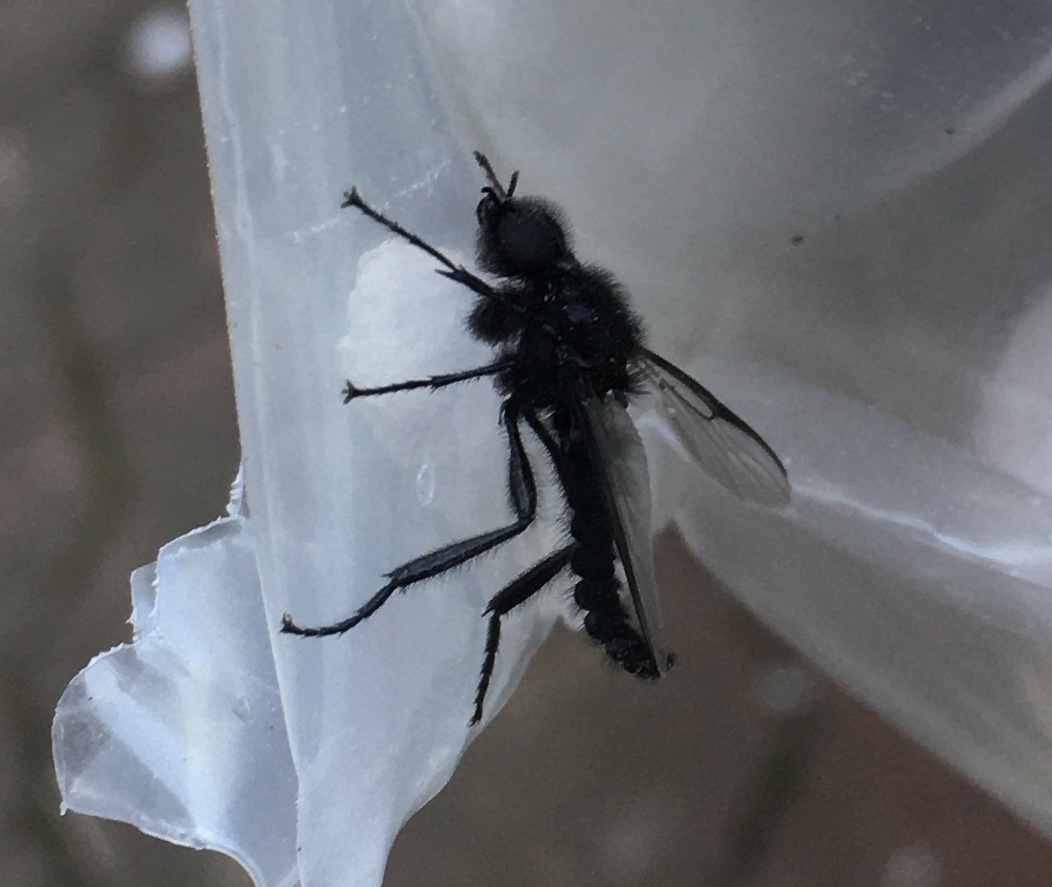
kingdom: Animalia
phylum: Arthropoda
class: Insecta
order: Diptera
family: Bibionidae
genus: Bibio
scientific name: Bibio marci
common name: St marks fly
